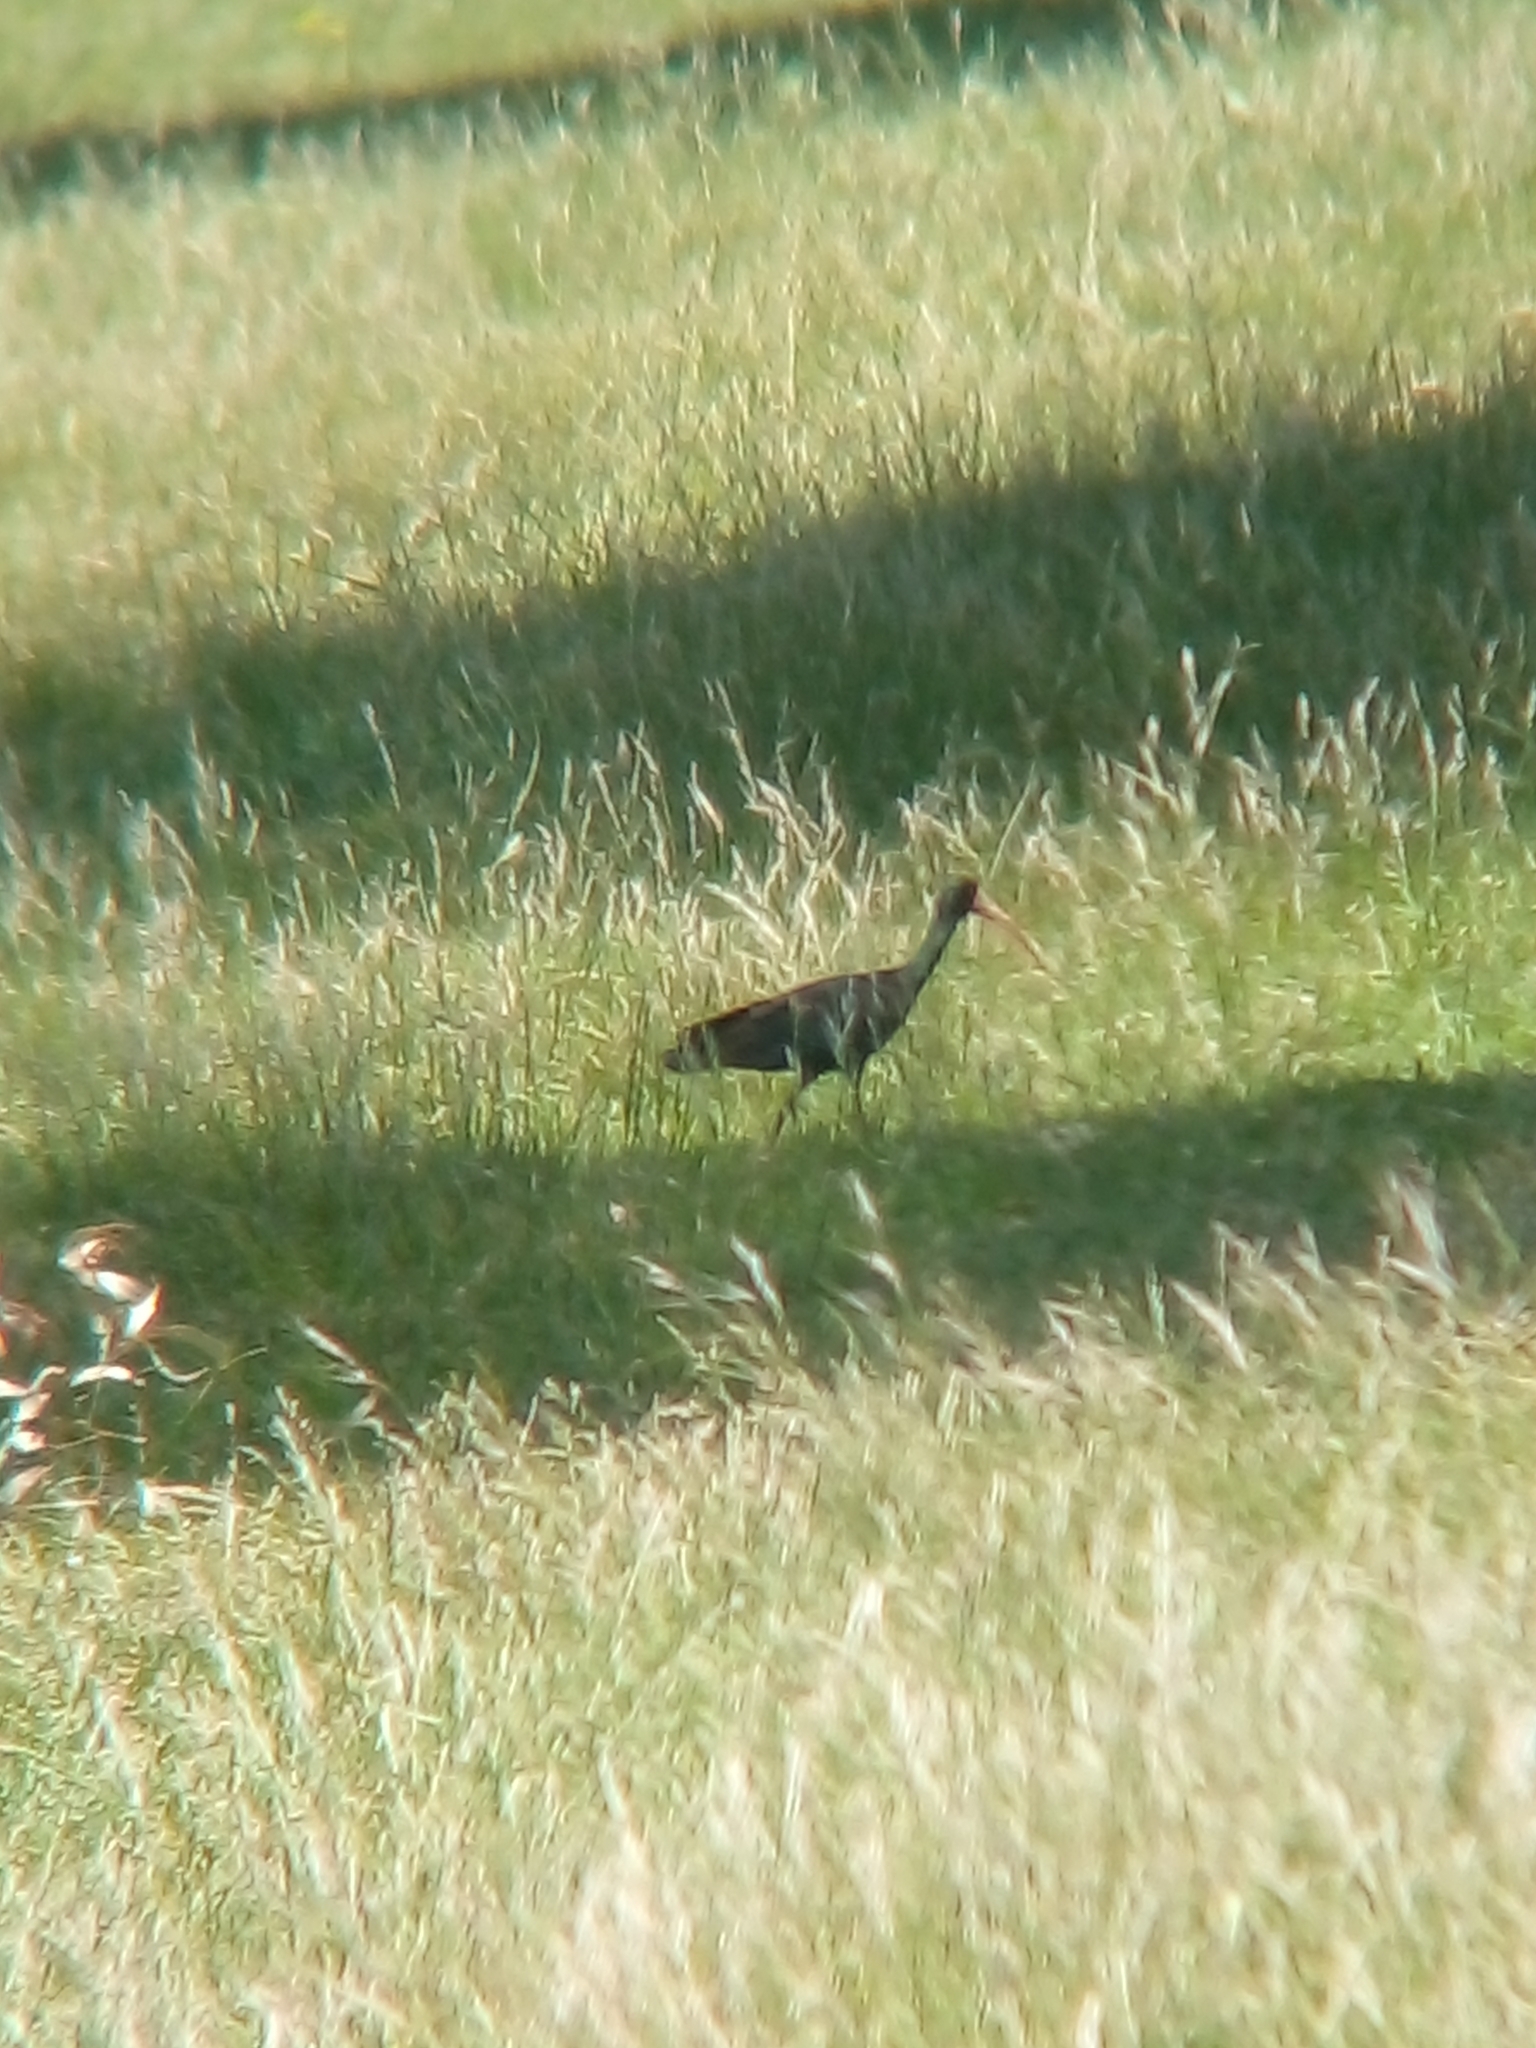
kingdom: Animalia
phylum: Chordata
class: Aves
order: Pelecaniformes
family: Threskiornithidae
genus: Phimosus
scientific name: Phimosus infuscatus
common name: Bare-faced ibis
